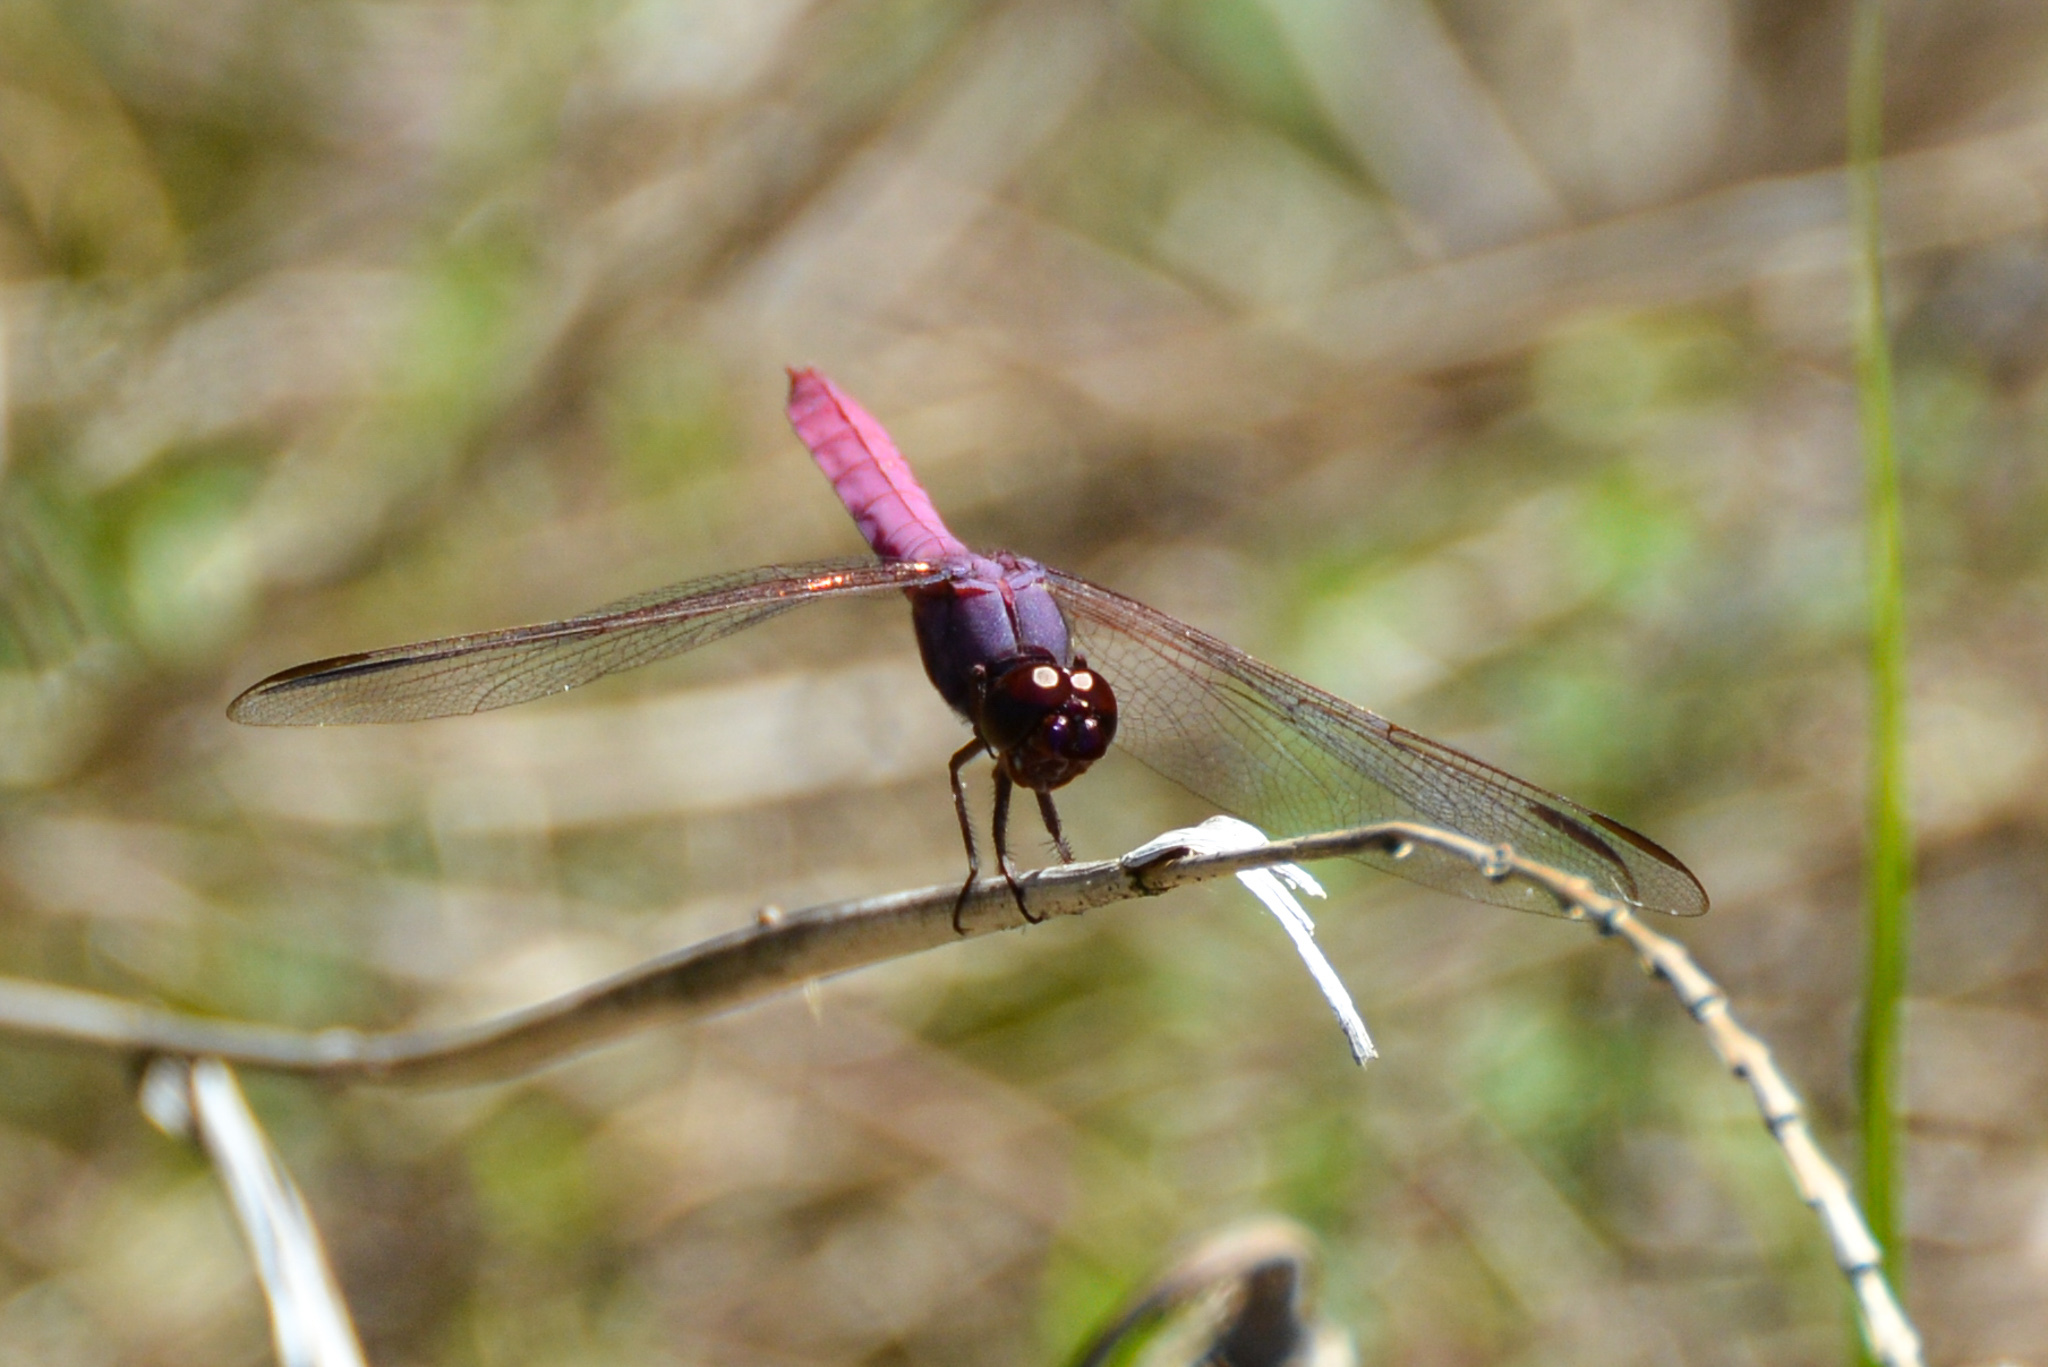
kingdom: Animalia
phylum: Arthropoda
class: Insecta
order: Odonata
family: Libellulidae
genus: Orthemis
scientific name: Orthemis ferruginea
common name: Roseate skimmer
